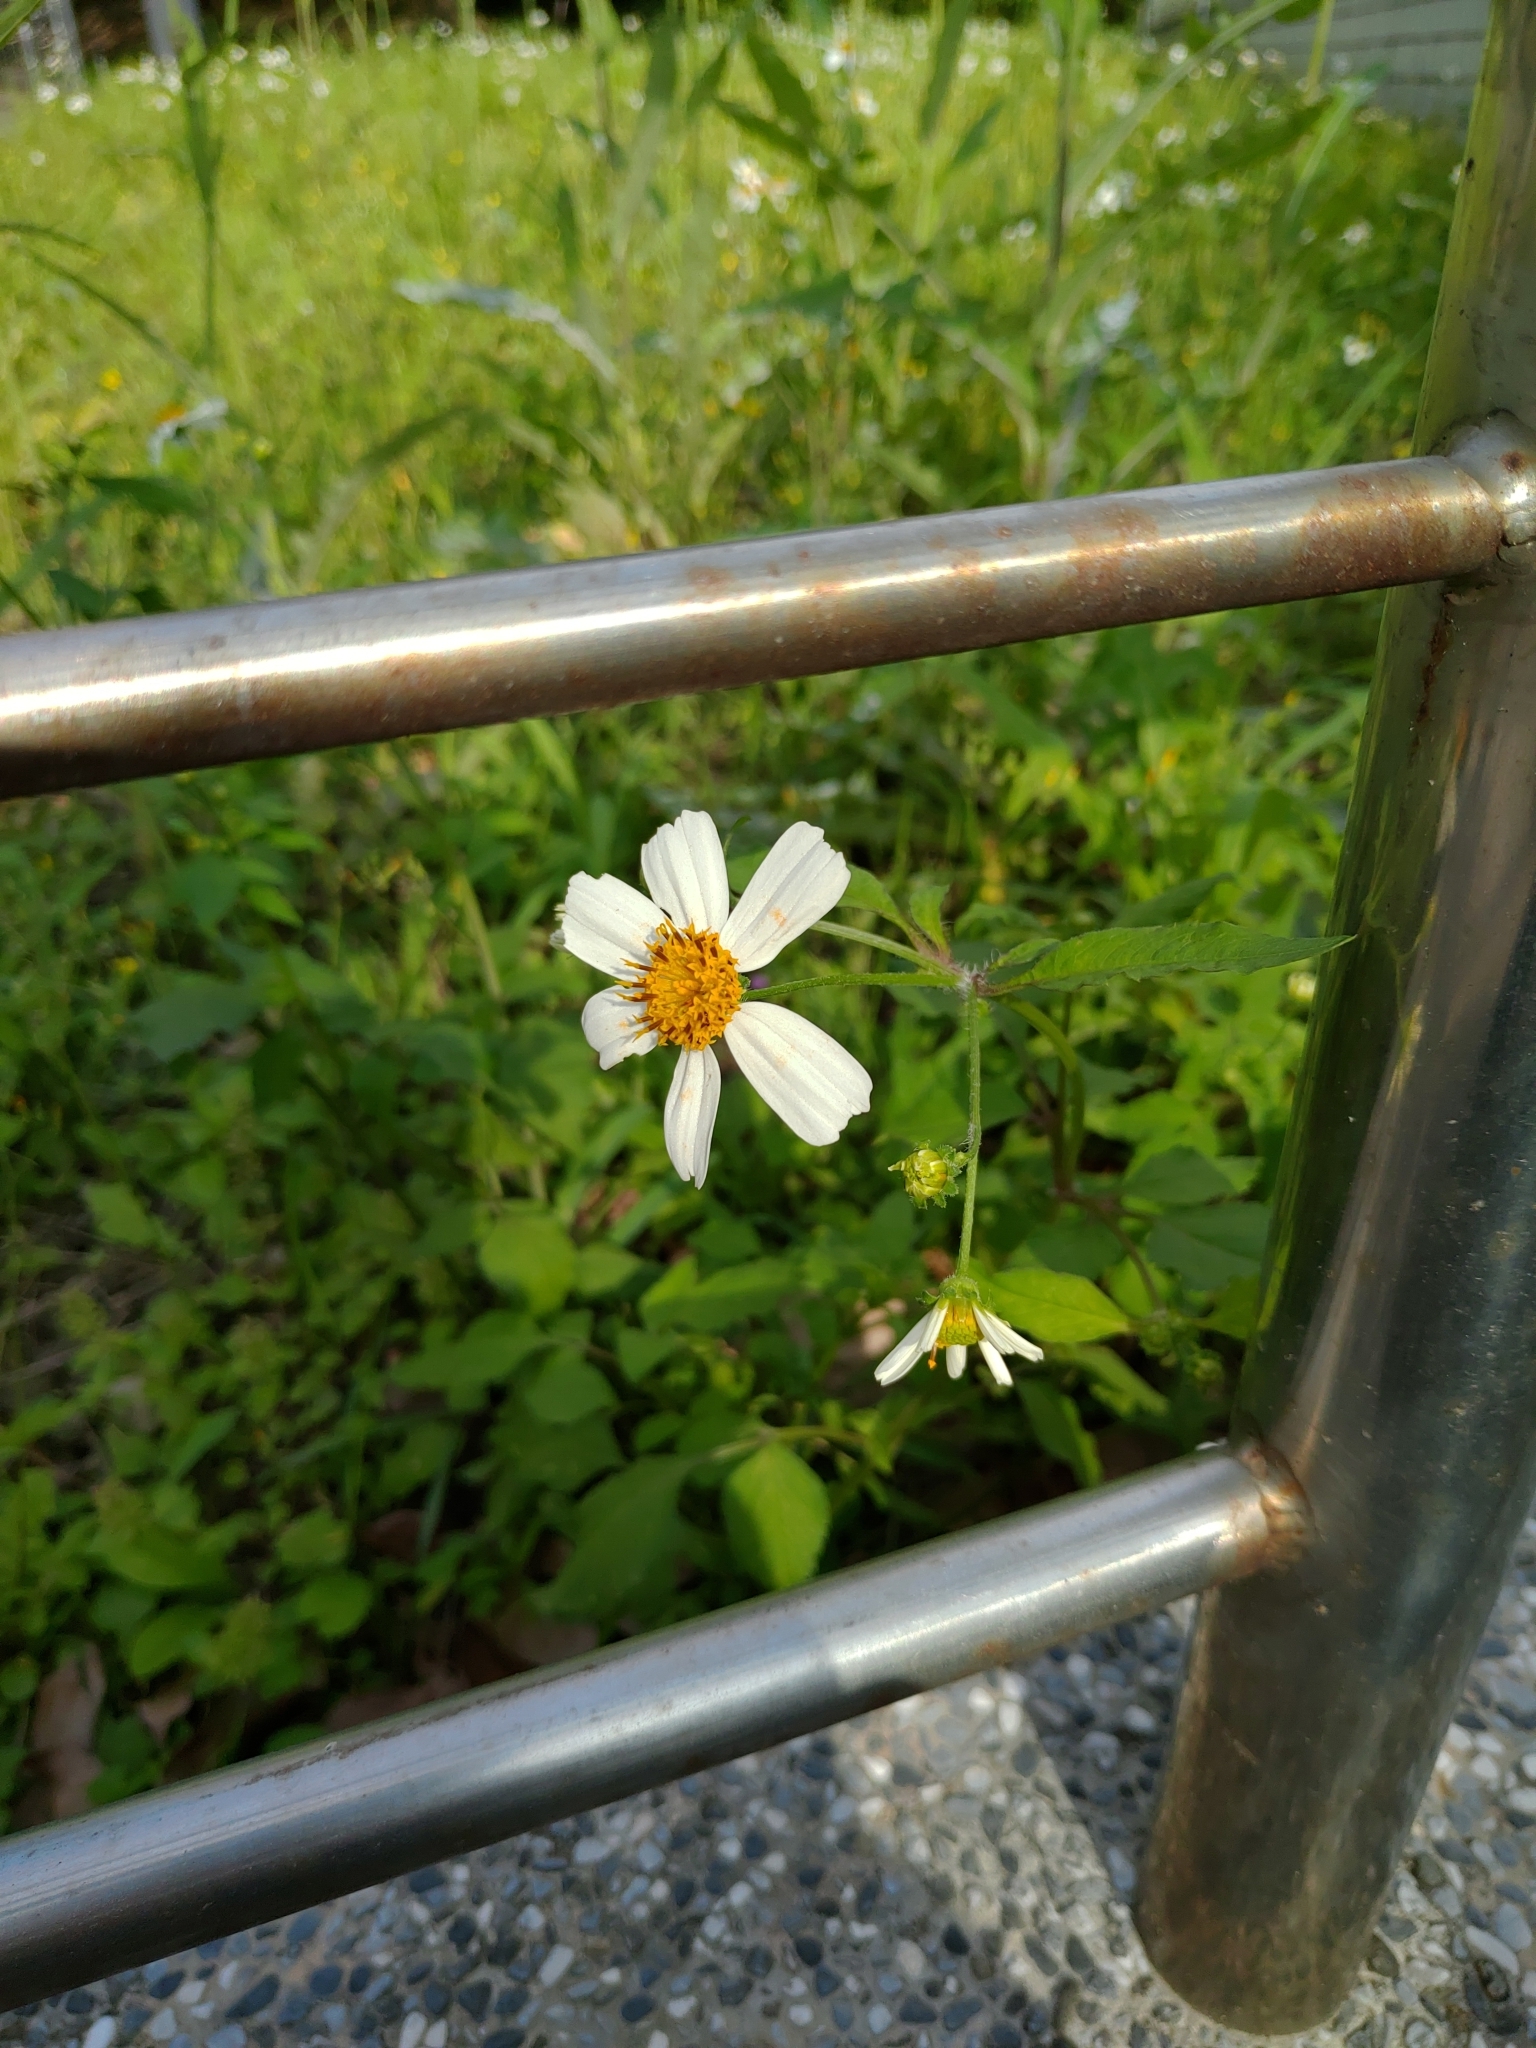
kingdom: Plantae
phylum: Tracheophyta
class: Magnoliopsida
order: Asterales
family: Asteraceae
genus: Bidens
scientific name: Bidens alba
